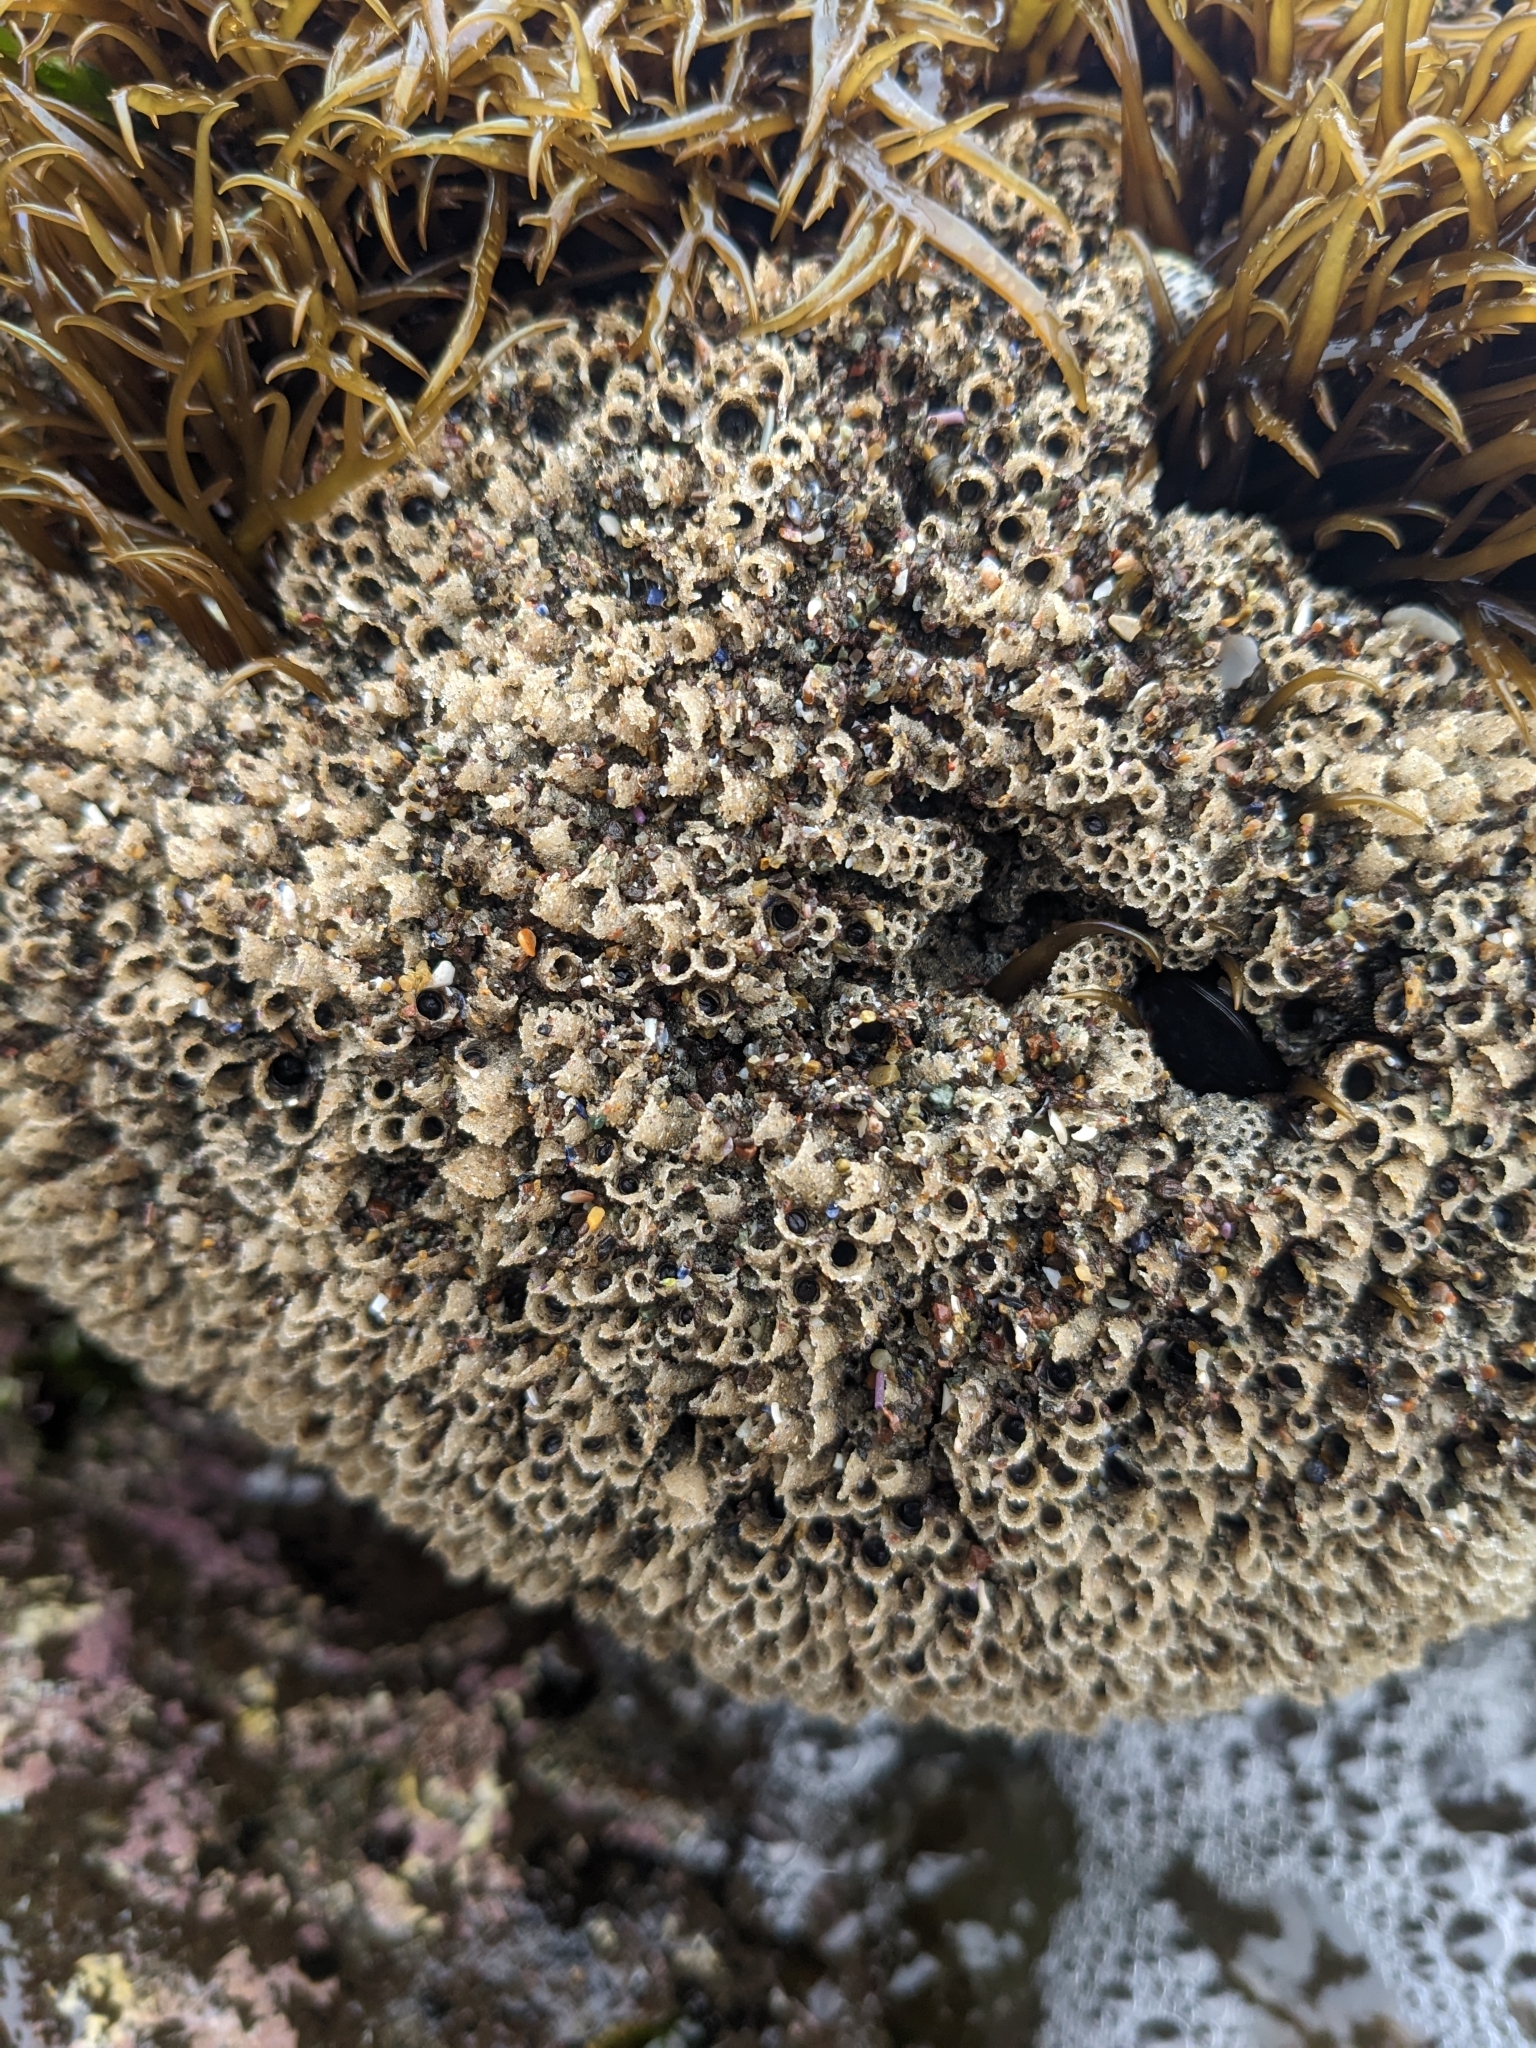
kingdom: Animalia
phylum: Annelida
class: Polychaeta
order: Sabellida
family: Sabellariidae
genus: Phragmatopoma
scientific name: Phragmatopoma californica
